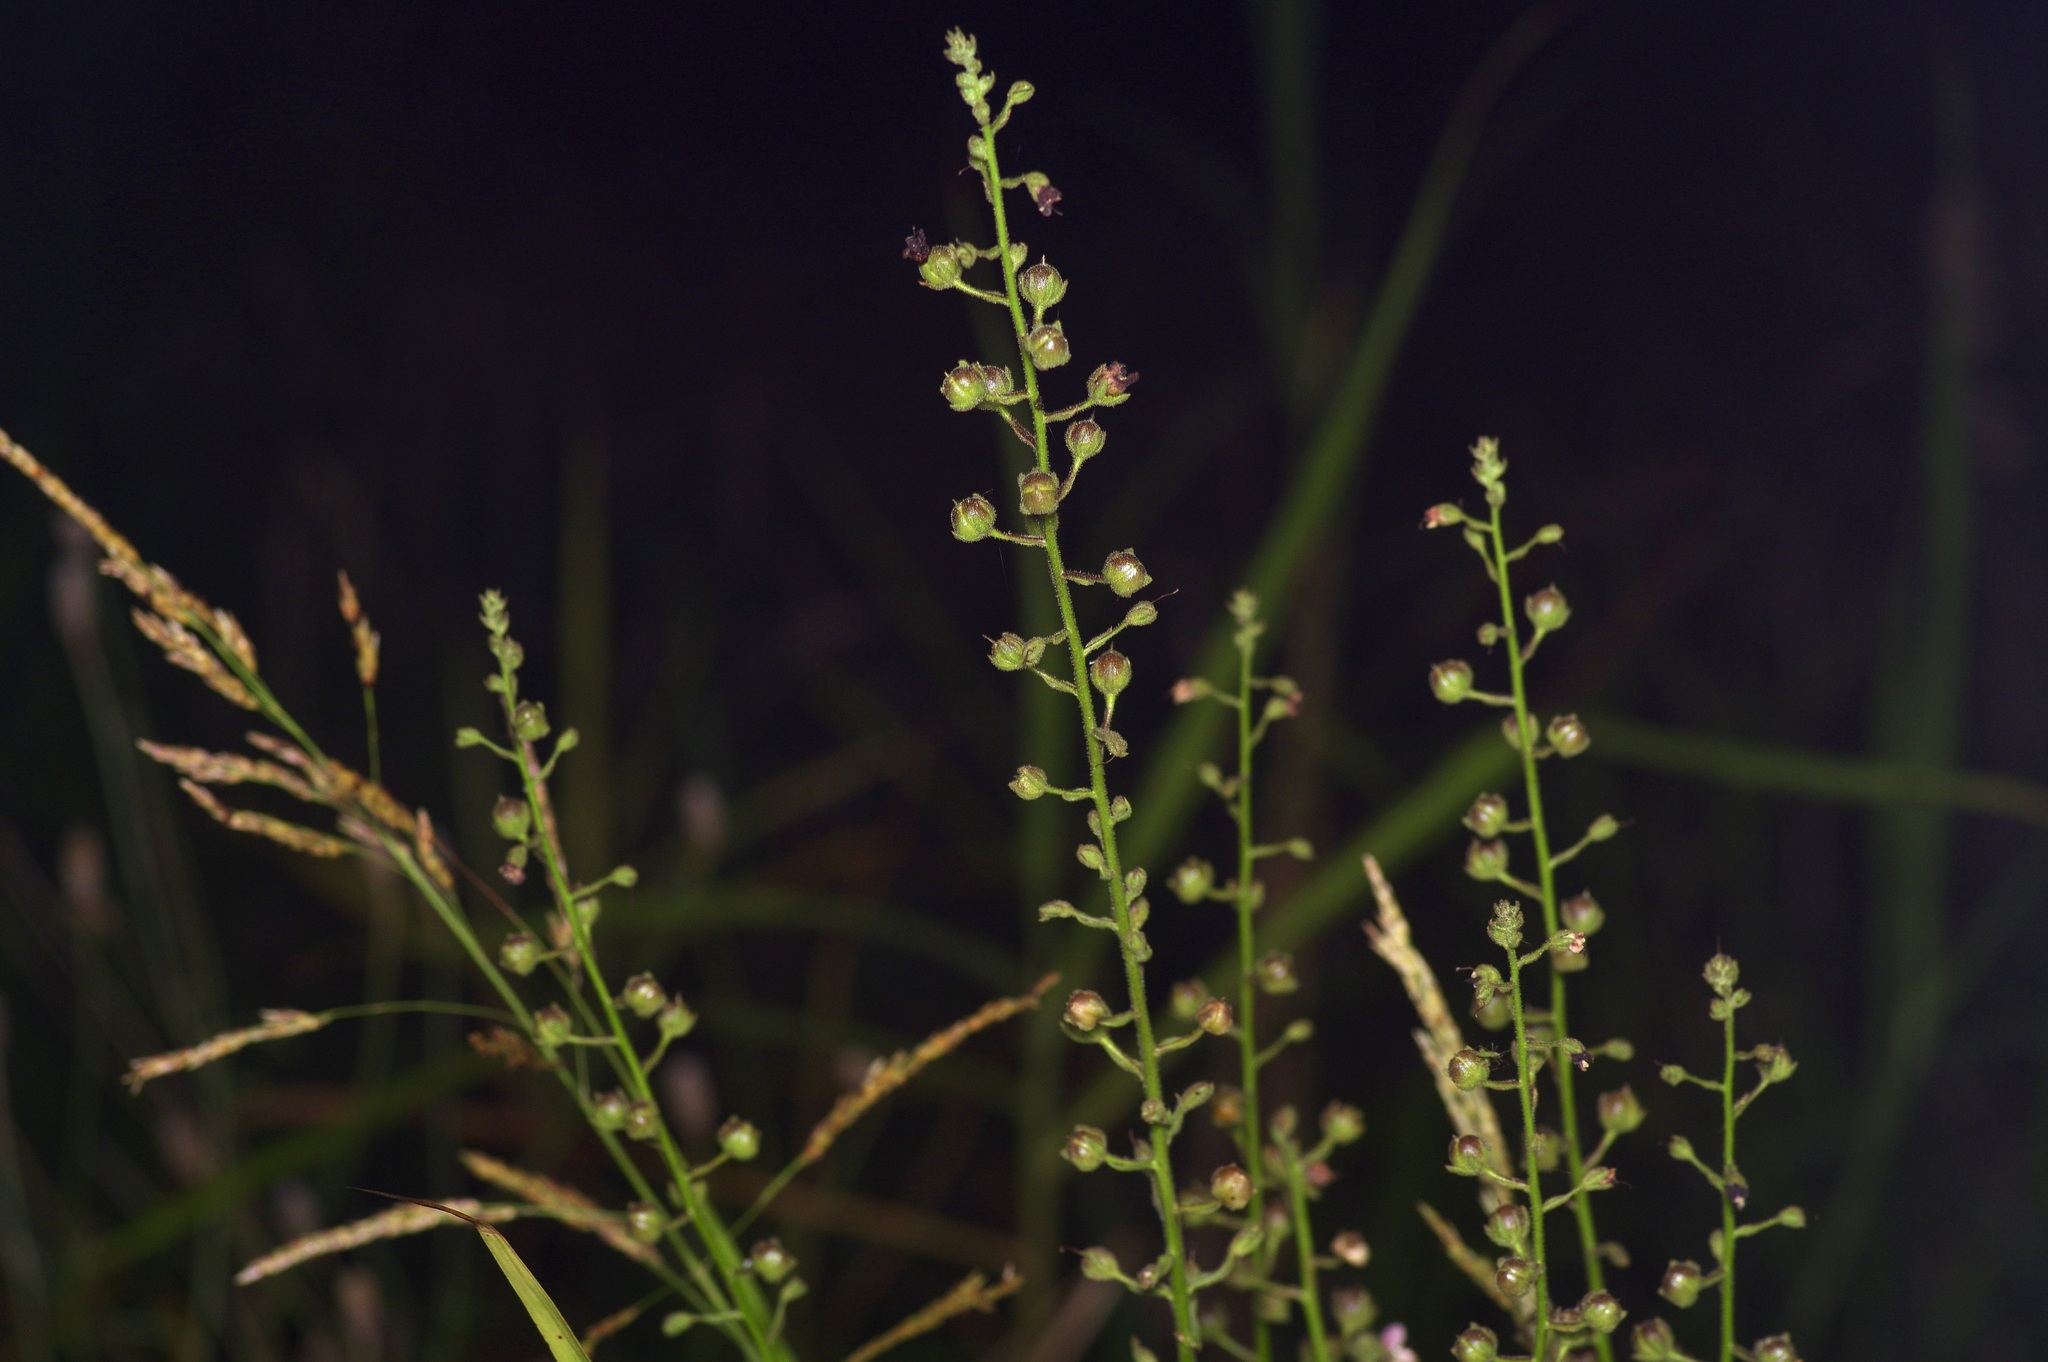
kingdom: Plantae
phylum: Tracheophyta
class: Magnoliopsida
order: Lamiales
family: Scrophulariaceae
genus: Verbascum
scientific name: Verbascum blattaria
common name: Moth mullein
